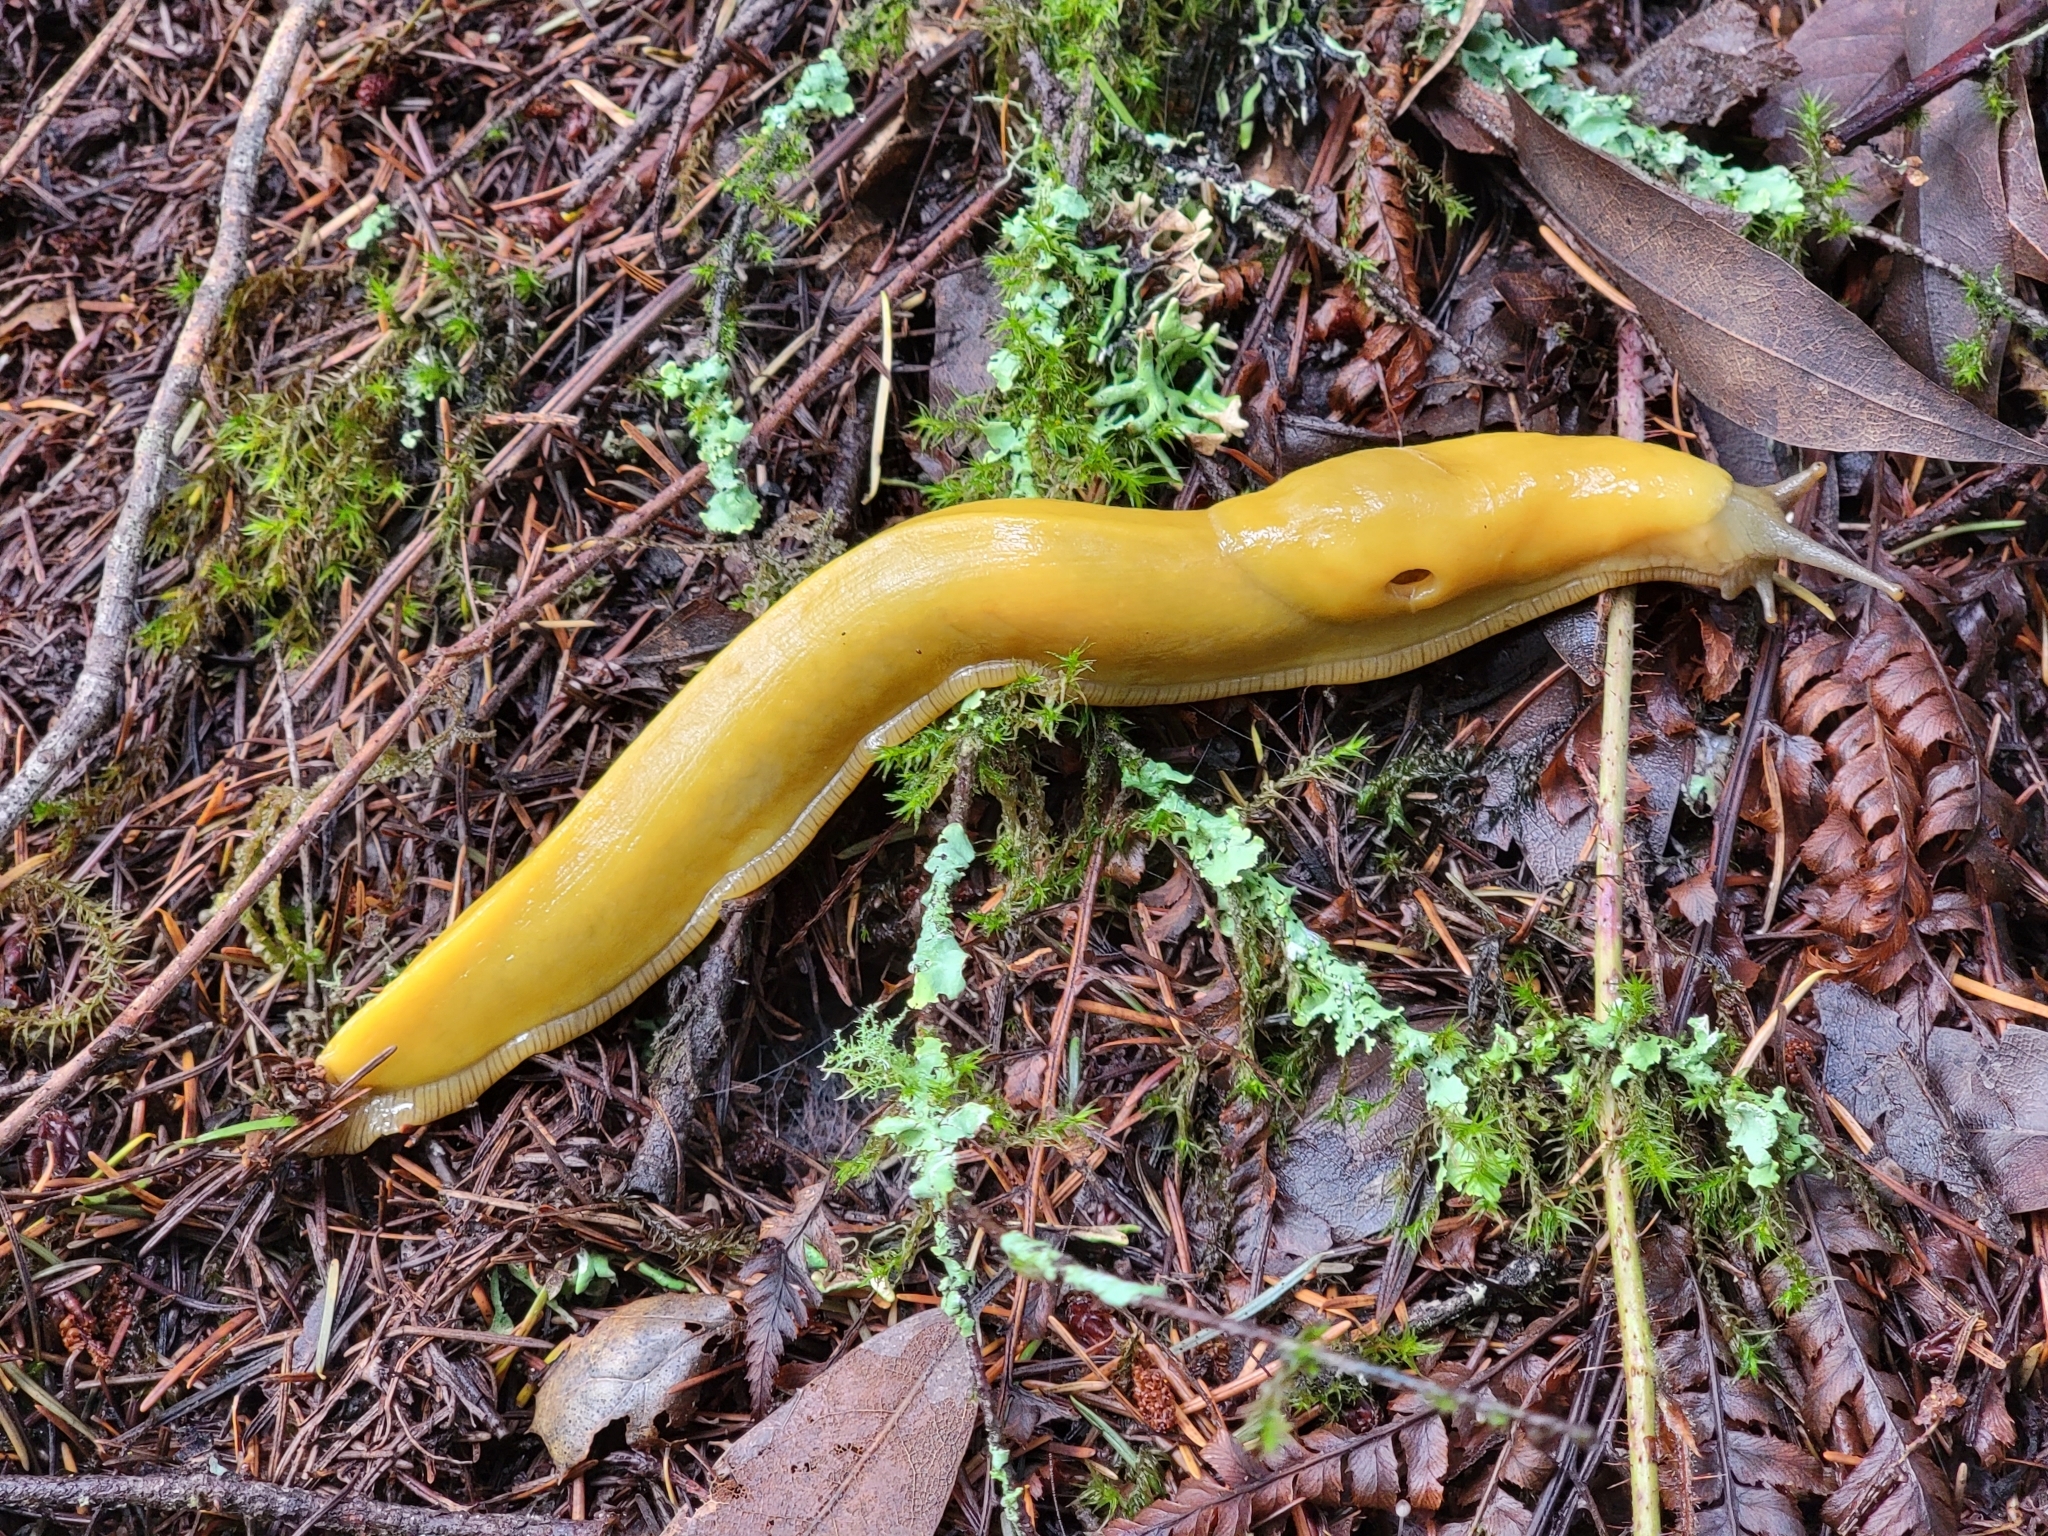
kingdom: Animalia
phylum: Mollusca
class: Gastropoda
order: Stylommatophora
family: Ariolimacidae
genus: Ariolimax
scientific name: Ariolimax californicus
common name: California banana slug
